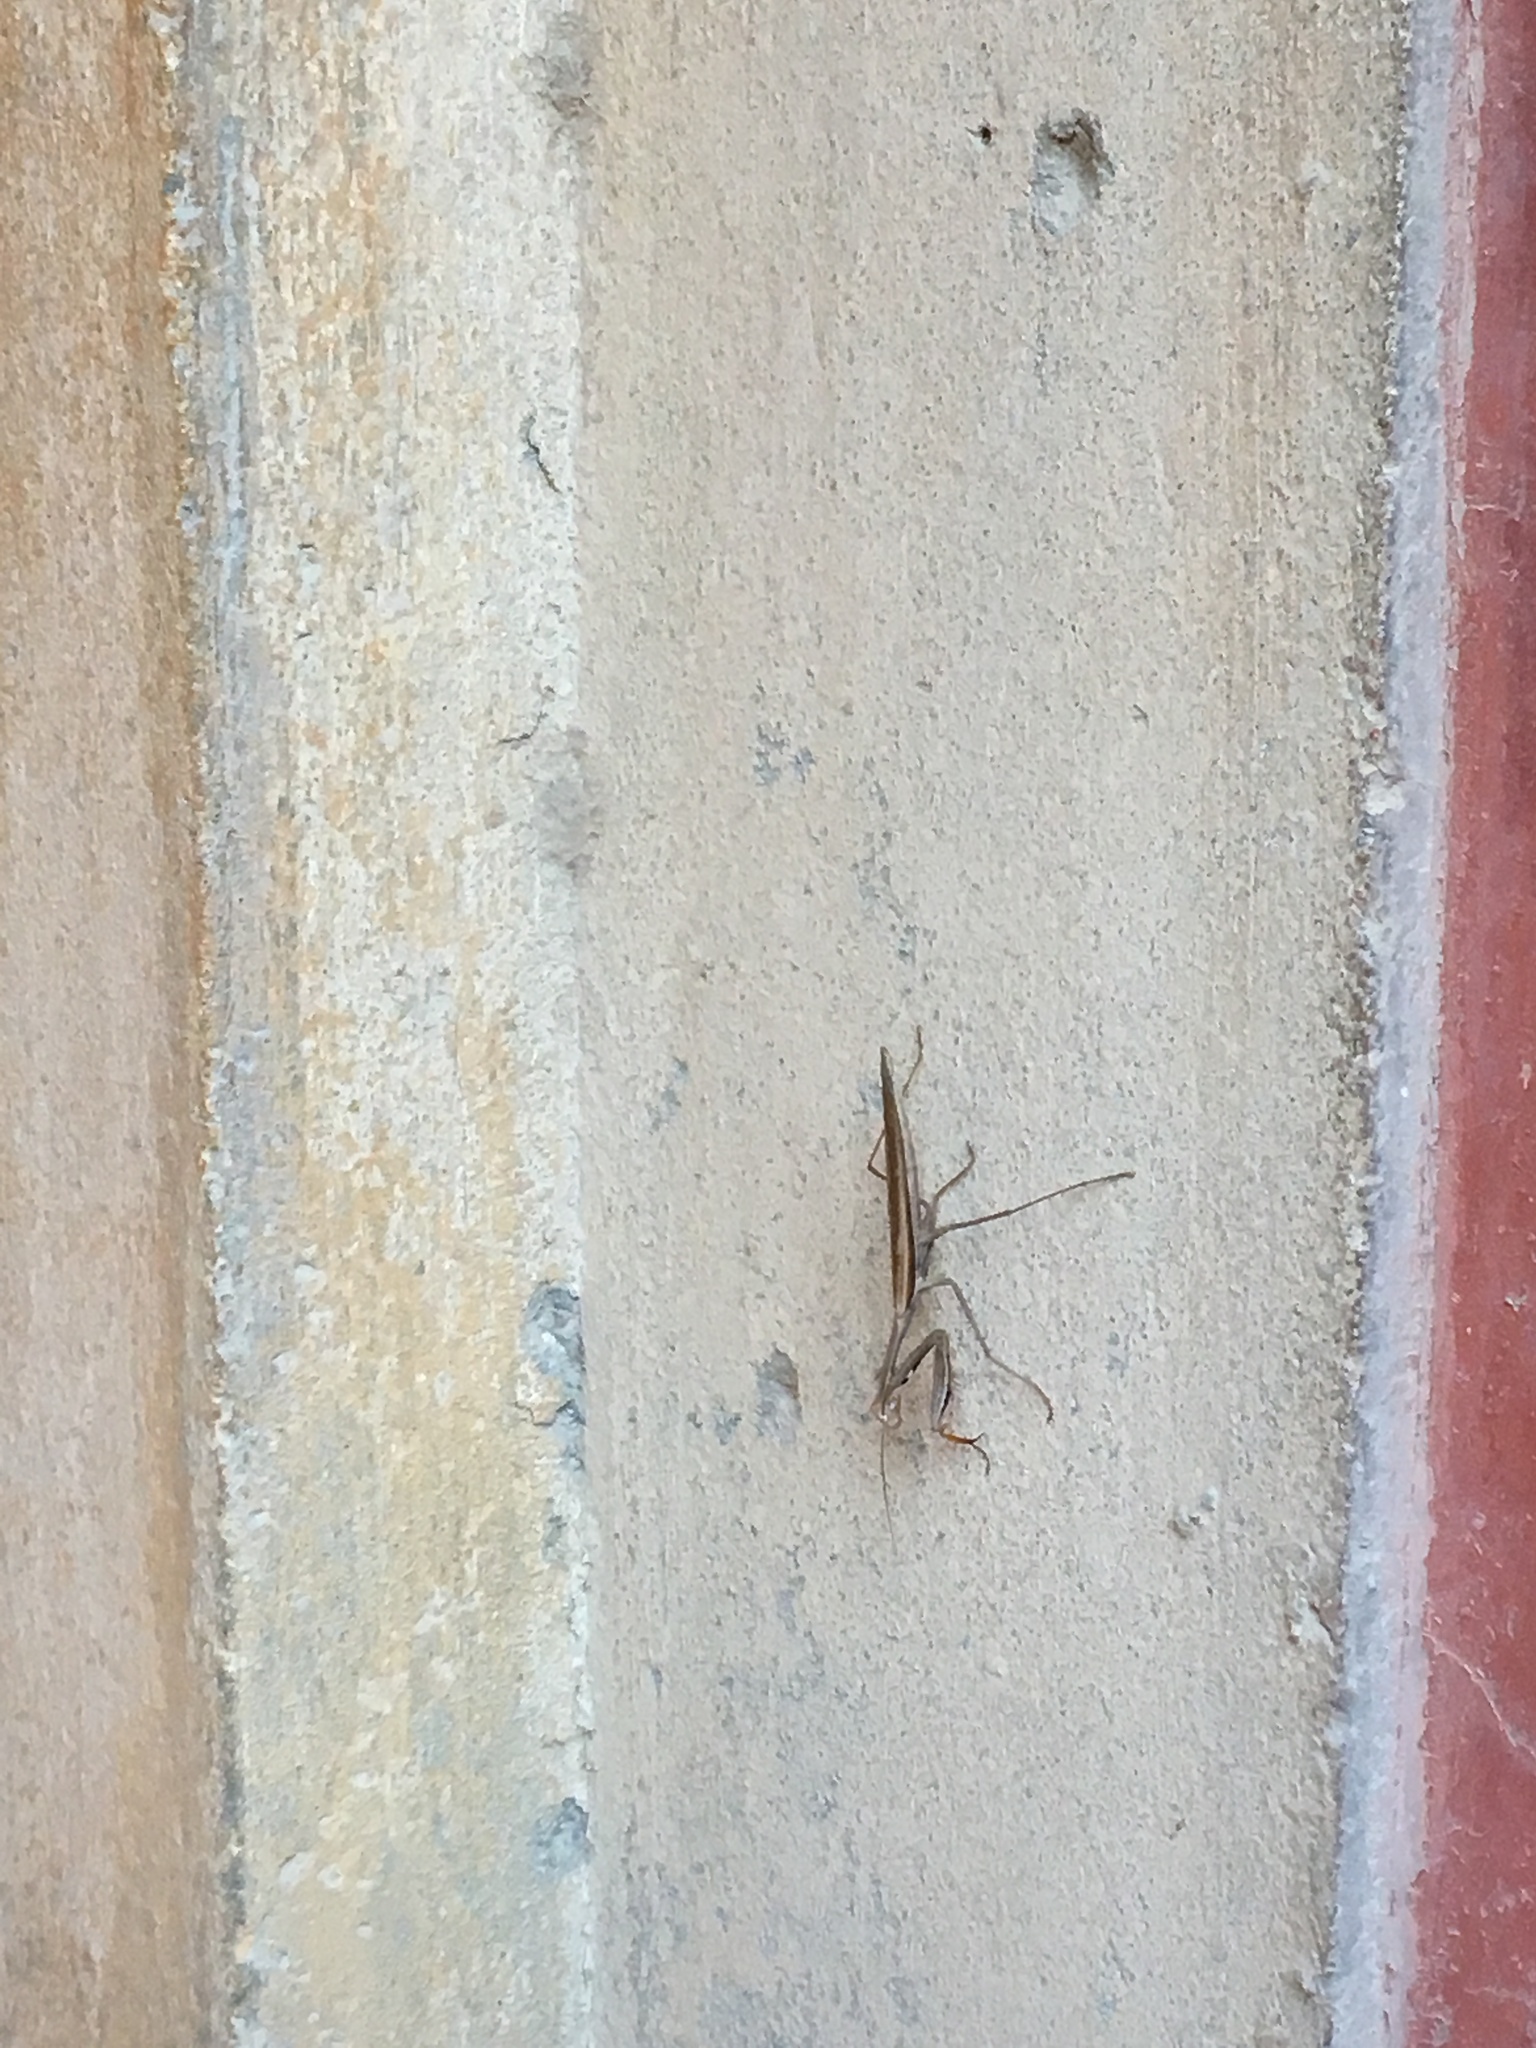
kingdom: Animalia
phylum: Arthropoda
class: Insecta
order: Mantodea
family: Mantidae
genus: Mantis
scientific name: Mantis religiosa
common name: Praying mantis
